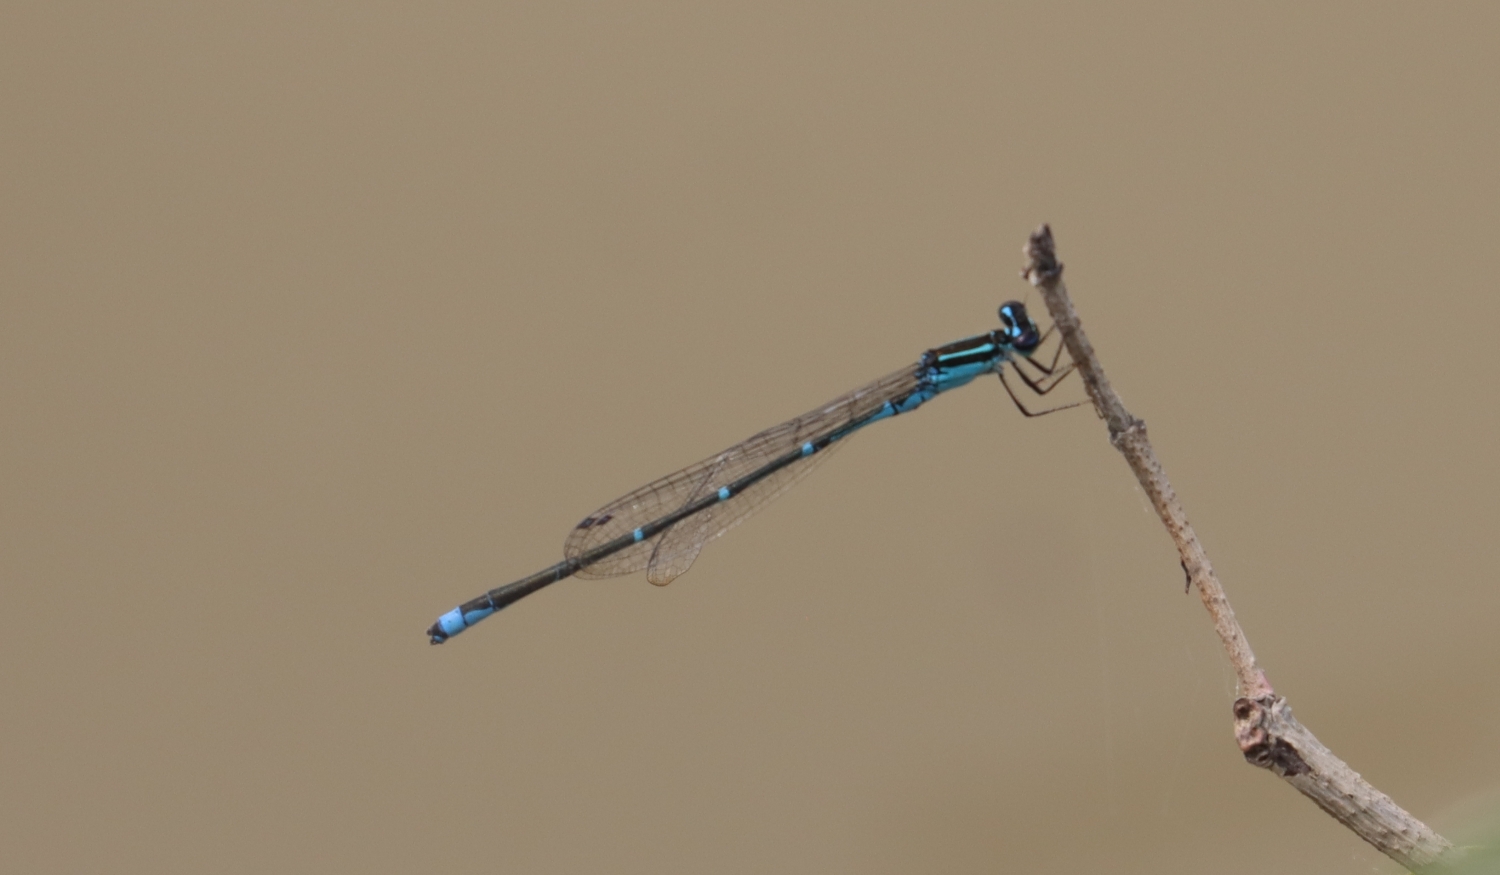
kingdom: Animalia
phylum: Arthropoda
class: Insecta
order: Odonata
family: Coenagrionidae
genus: Enallagma
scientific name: Enallagma exsulans
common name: Stream bluet
